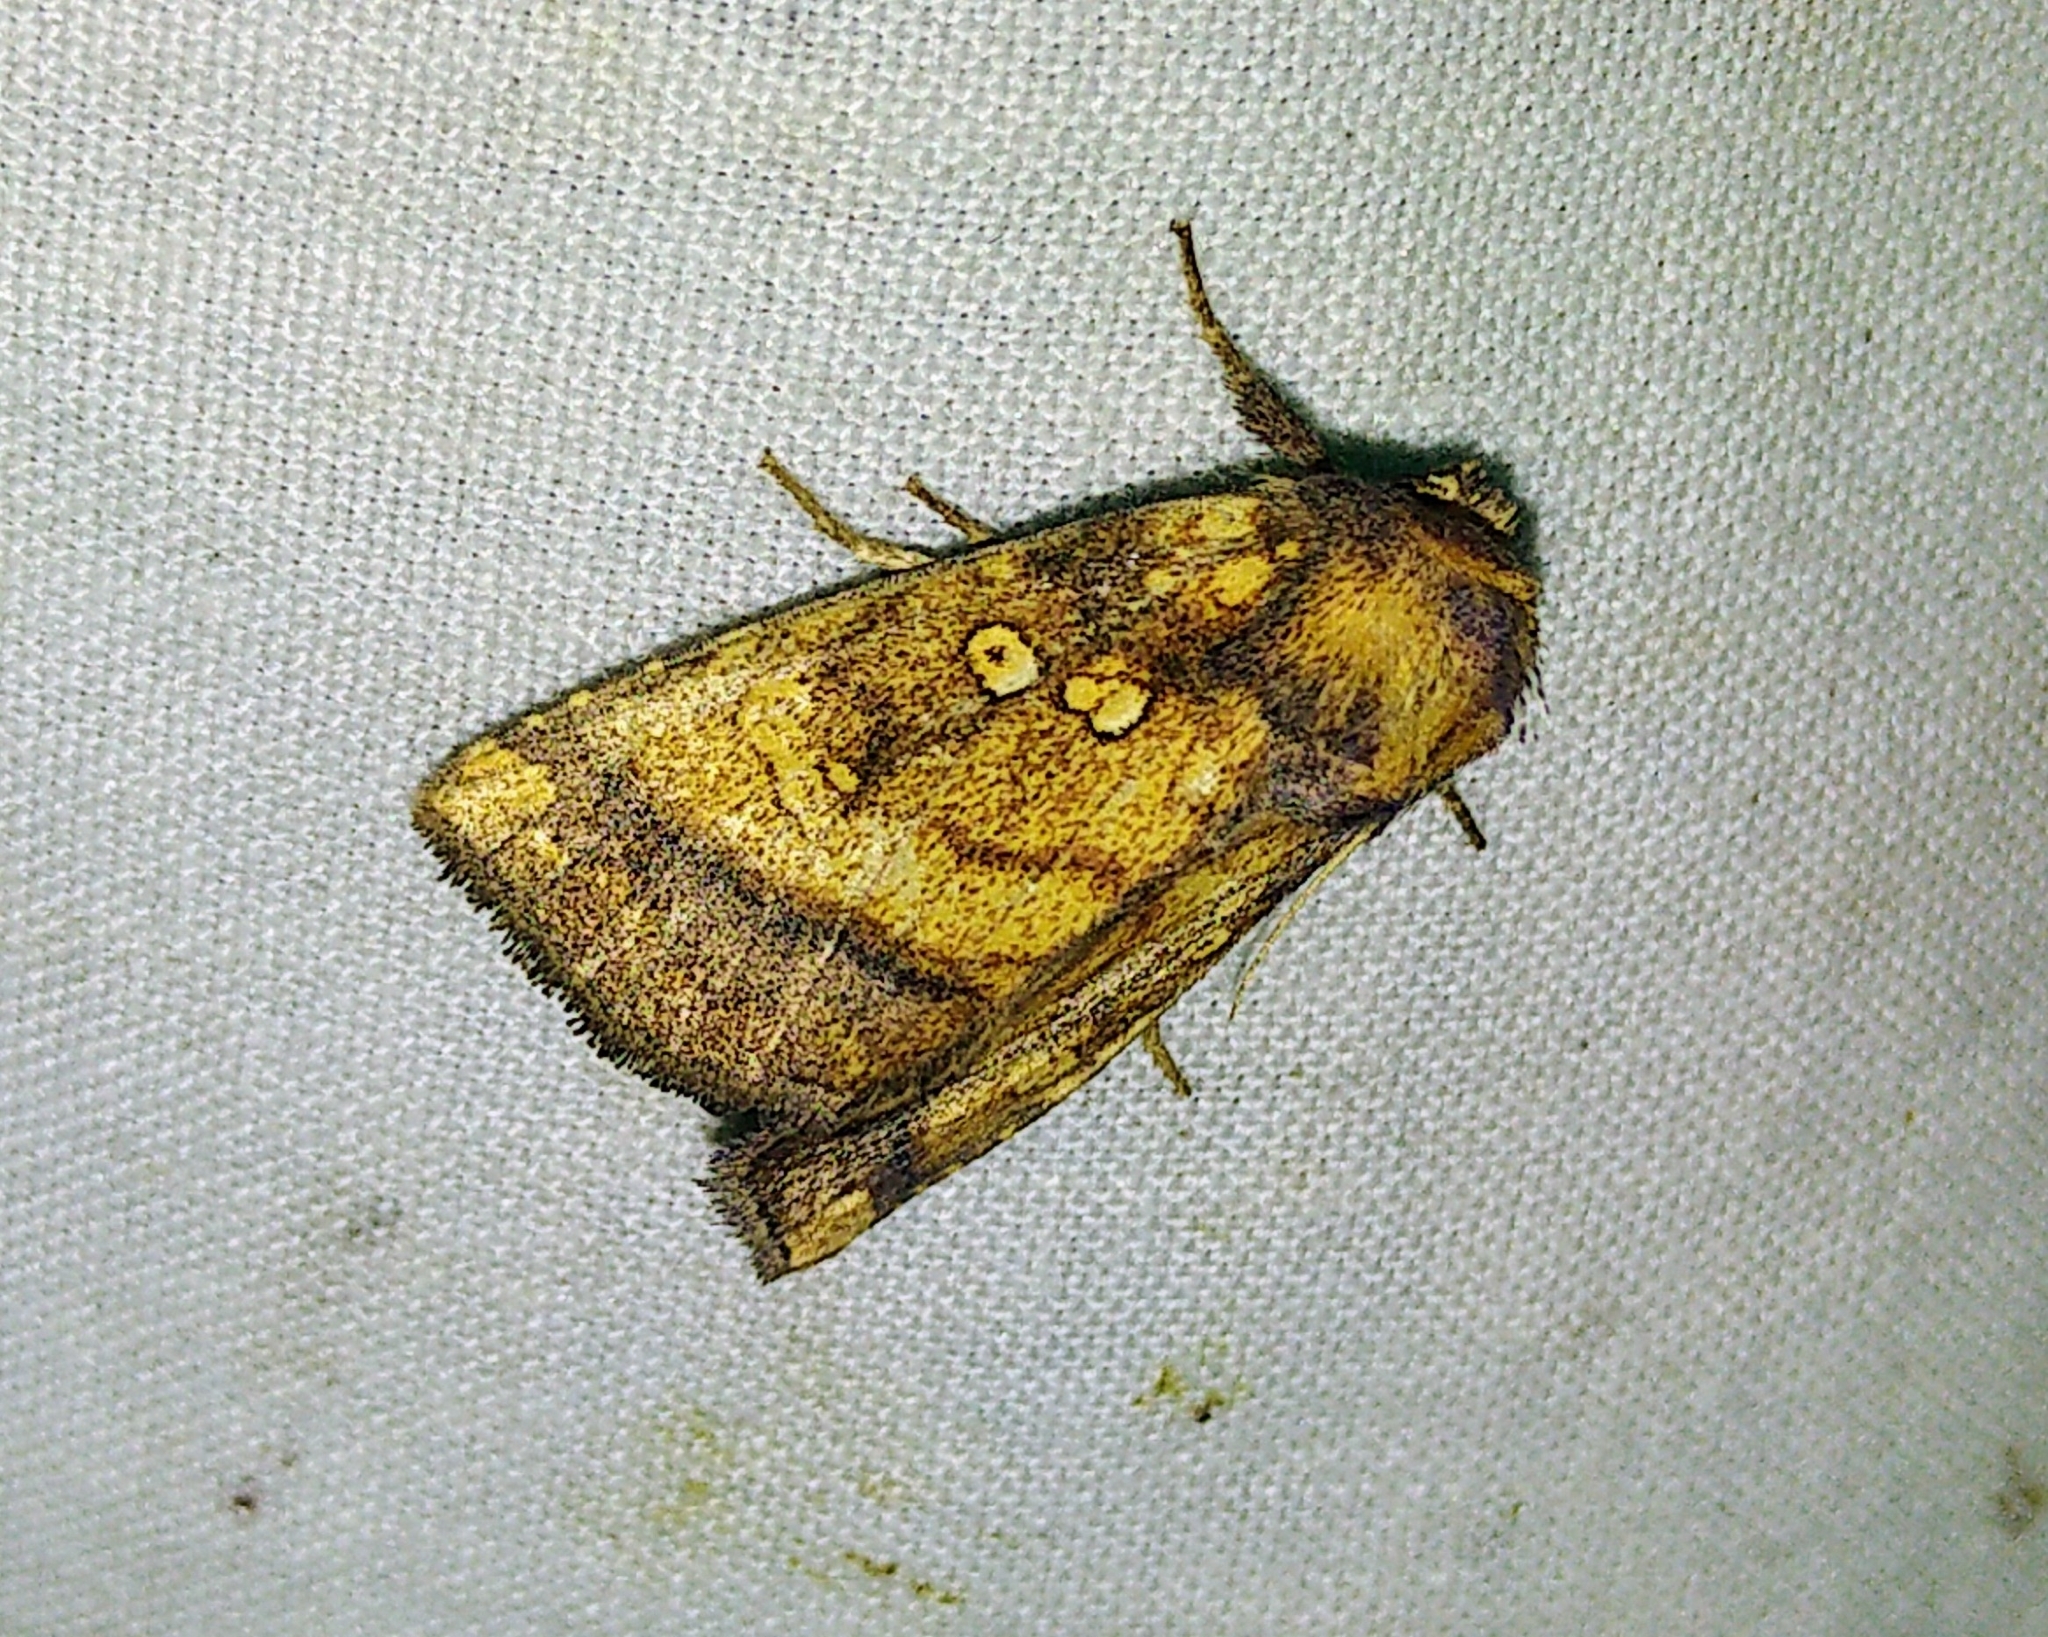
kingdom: Animalia
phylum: Arthropoda
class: Insecta
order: Lepidoptera
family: Noctuidae
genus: Papaipema
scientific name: Papaipema harrisii
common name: Heracleum stem borer moth
